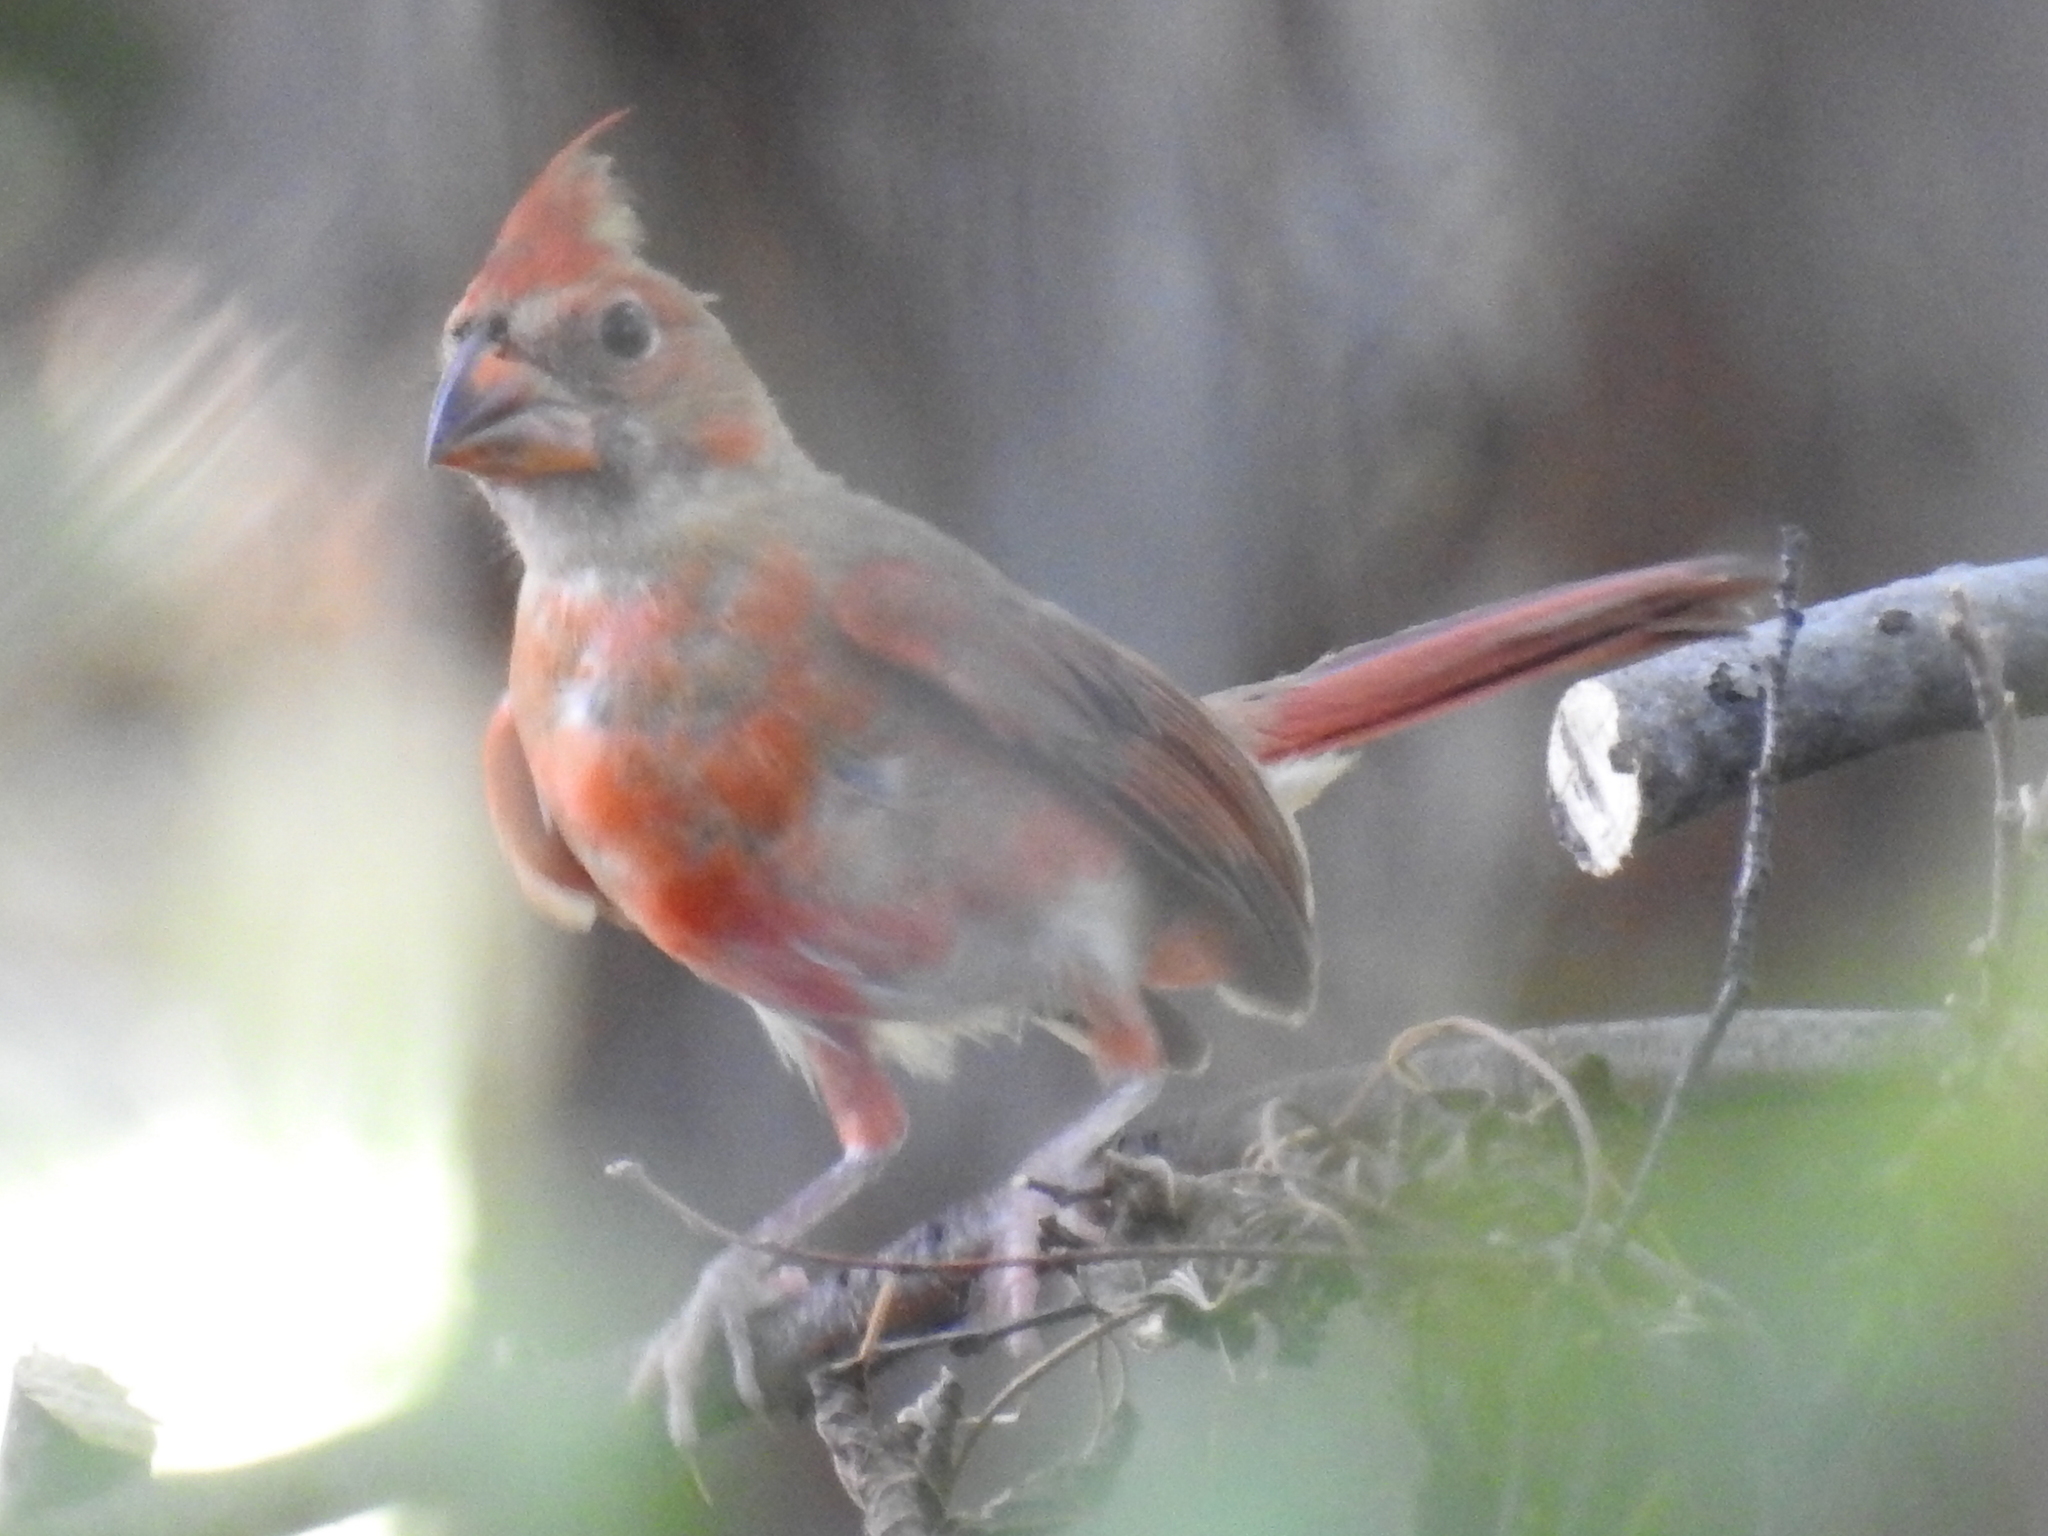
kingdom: Animalia
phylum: Chordata
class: Aves
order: Passeriformes
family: Cardinalidae
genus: Cardinalis
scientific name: Cardinalis cardinalis
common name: Northern cardinal
